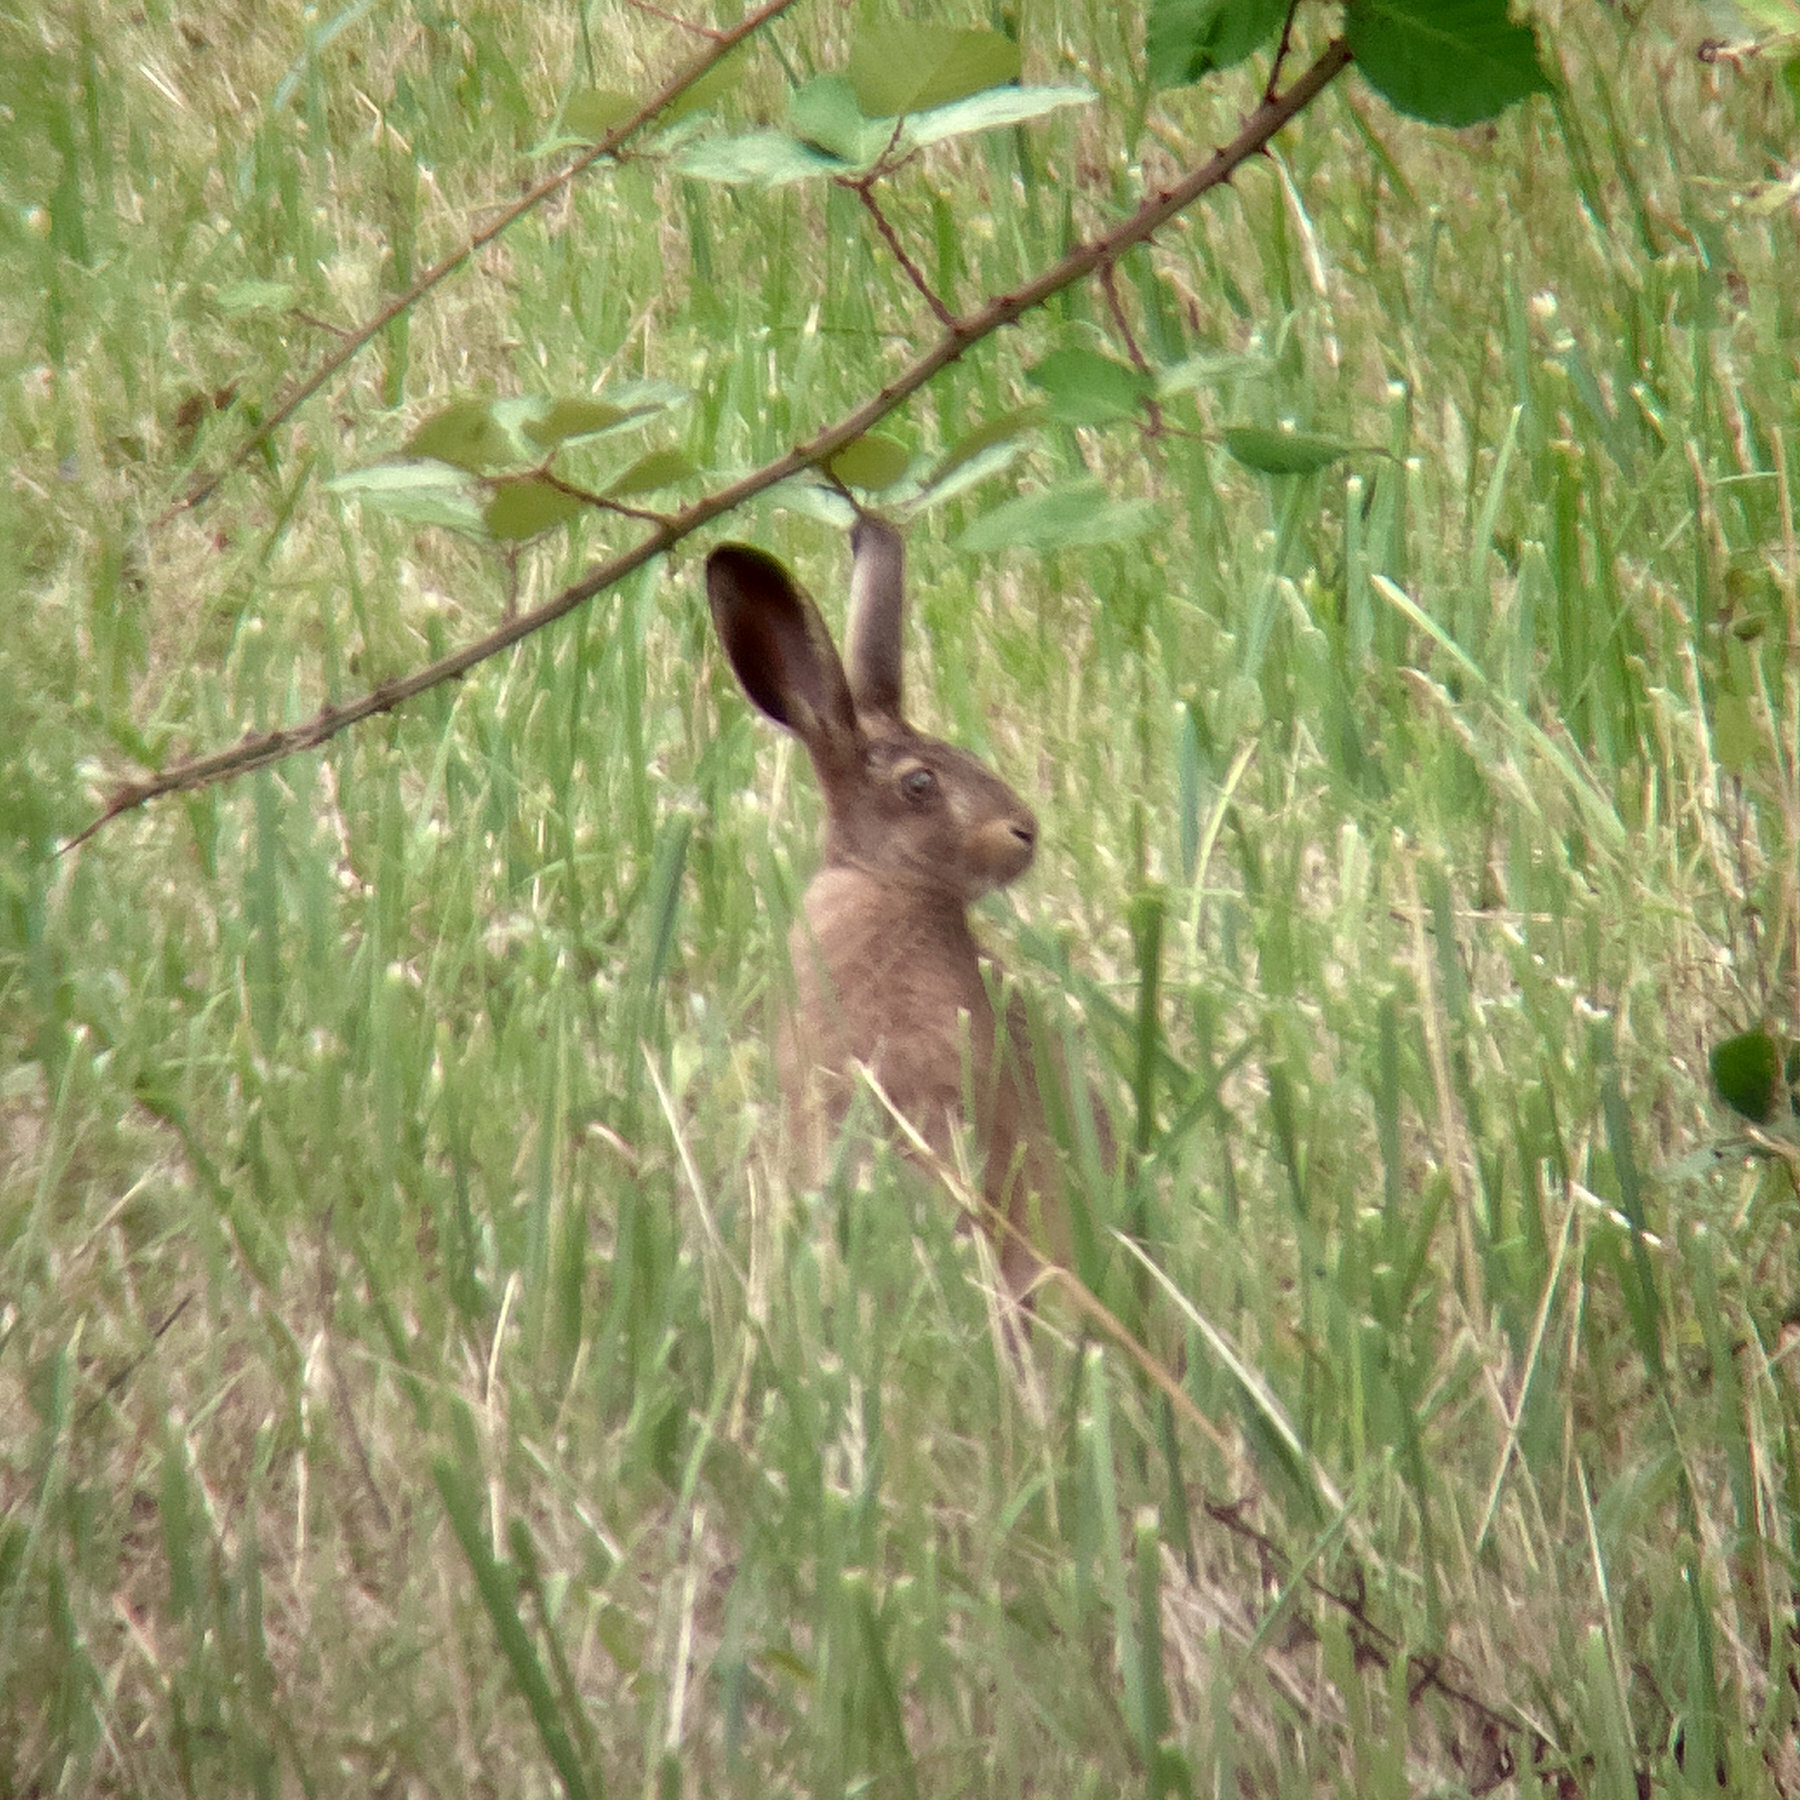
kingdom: Animalia
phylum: Chordata
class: Mammalia
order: Lagomorpha
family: Leporidae
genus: Lepus
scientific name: Lepus europaeus
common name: European hare
